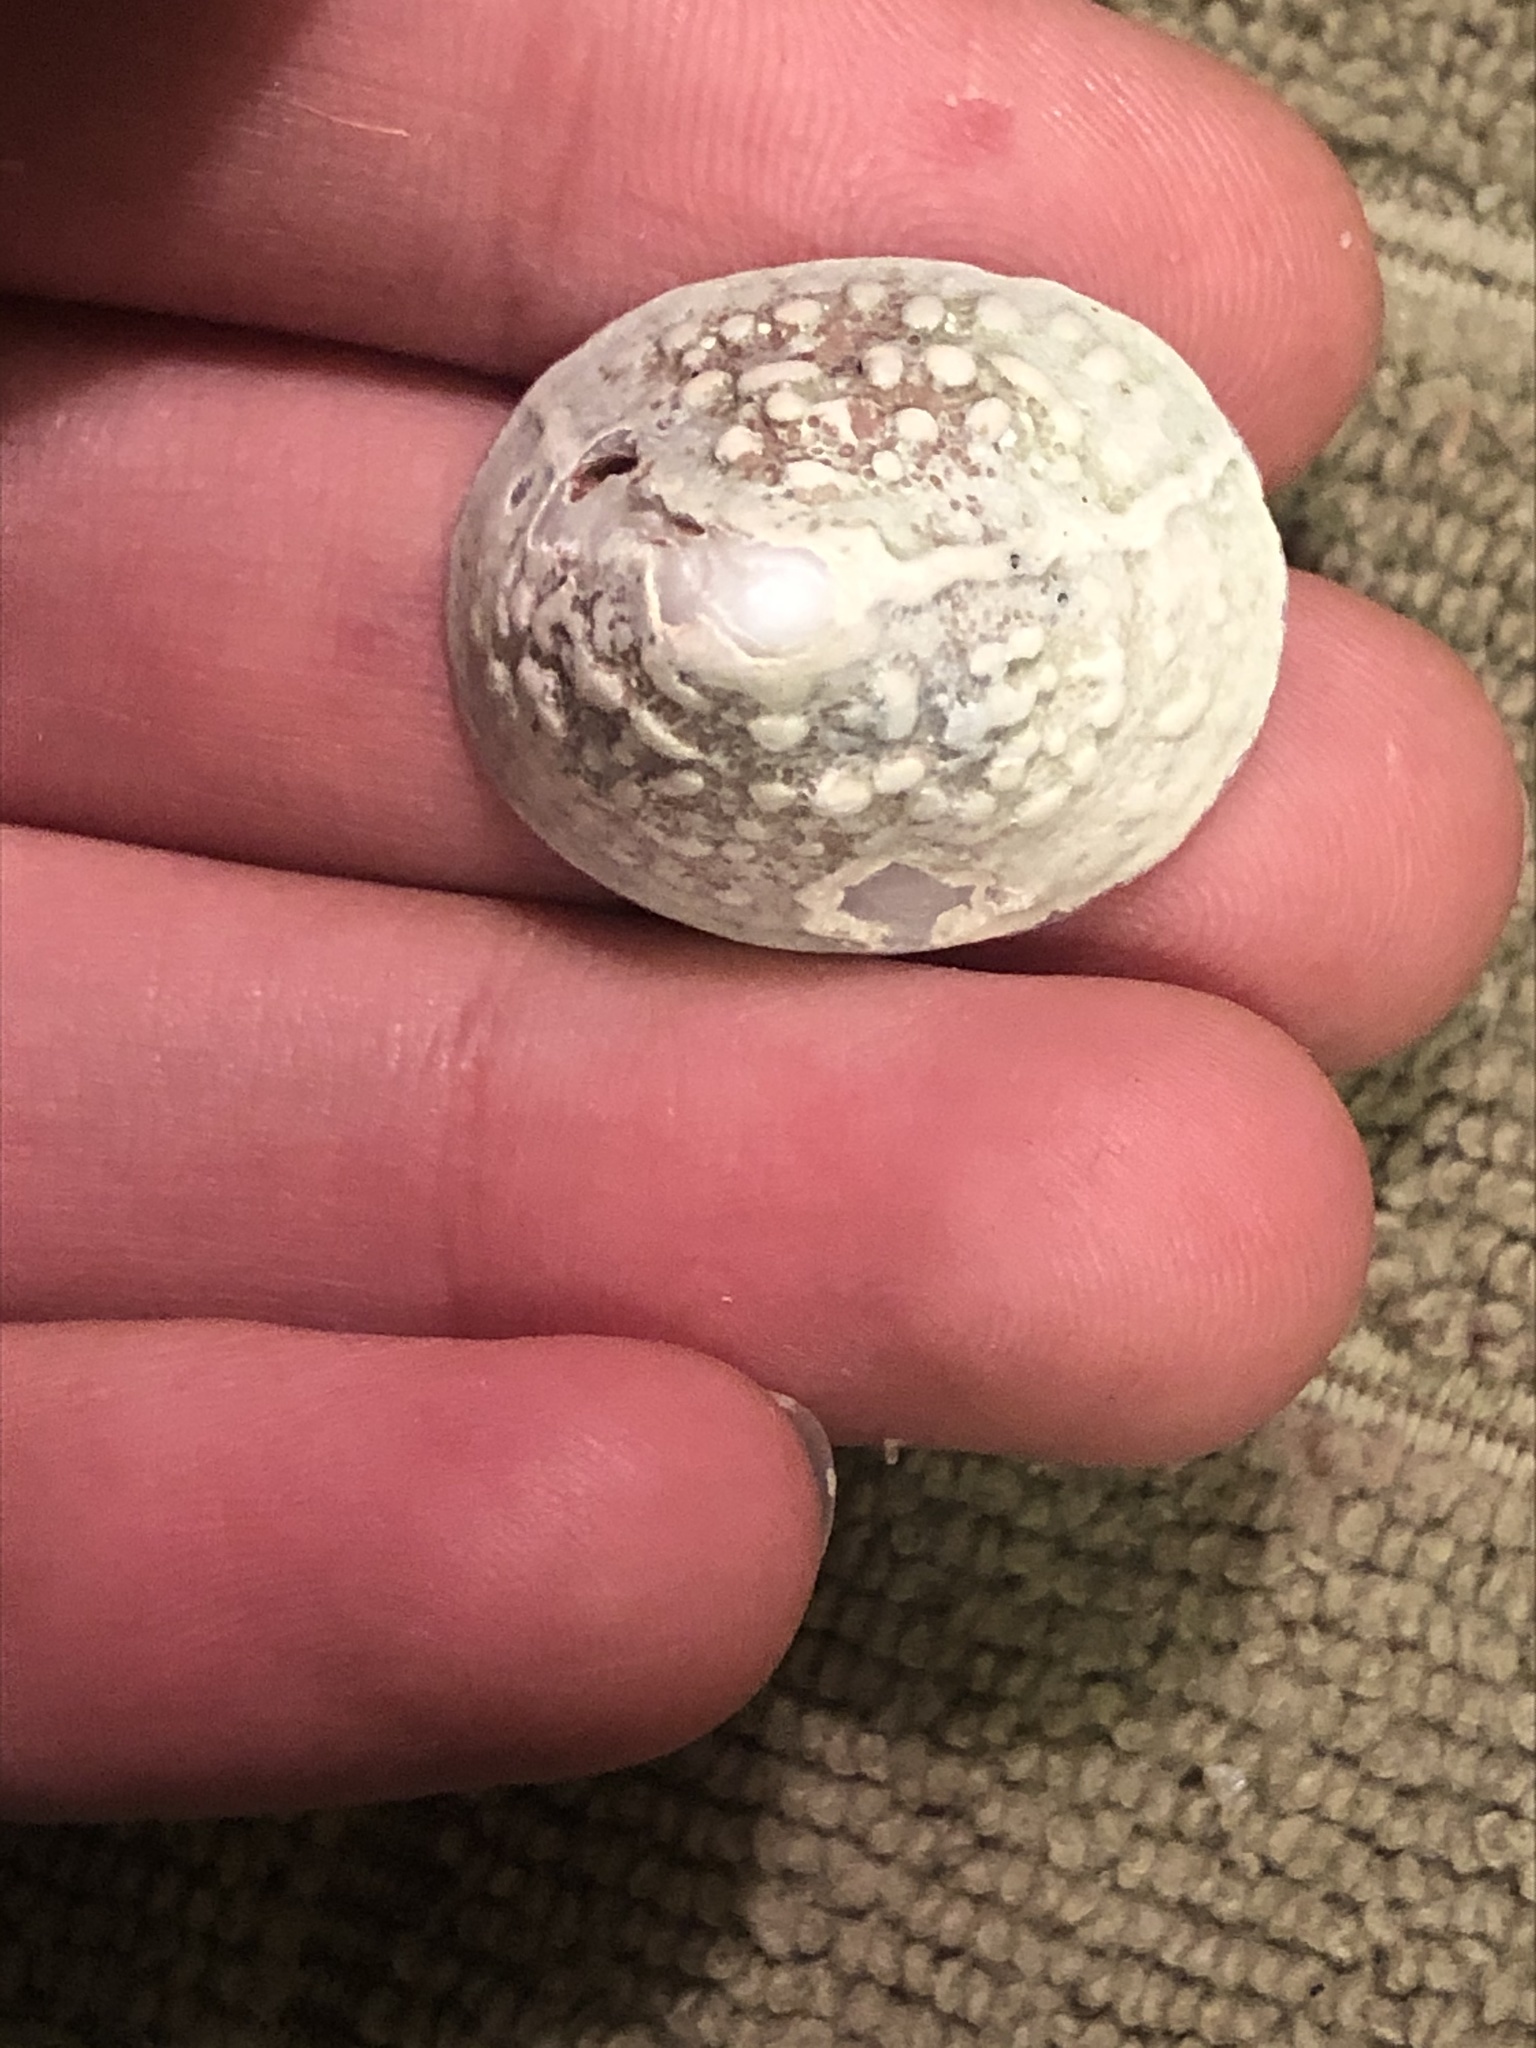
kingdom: Animalia
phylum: Mollusca
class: Gastropoda
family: Acmaeidae
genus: Acmaea
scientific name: Acmaea mitra
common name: Pacific white cap limpet
